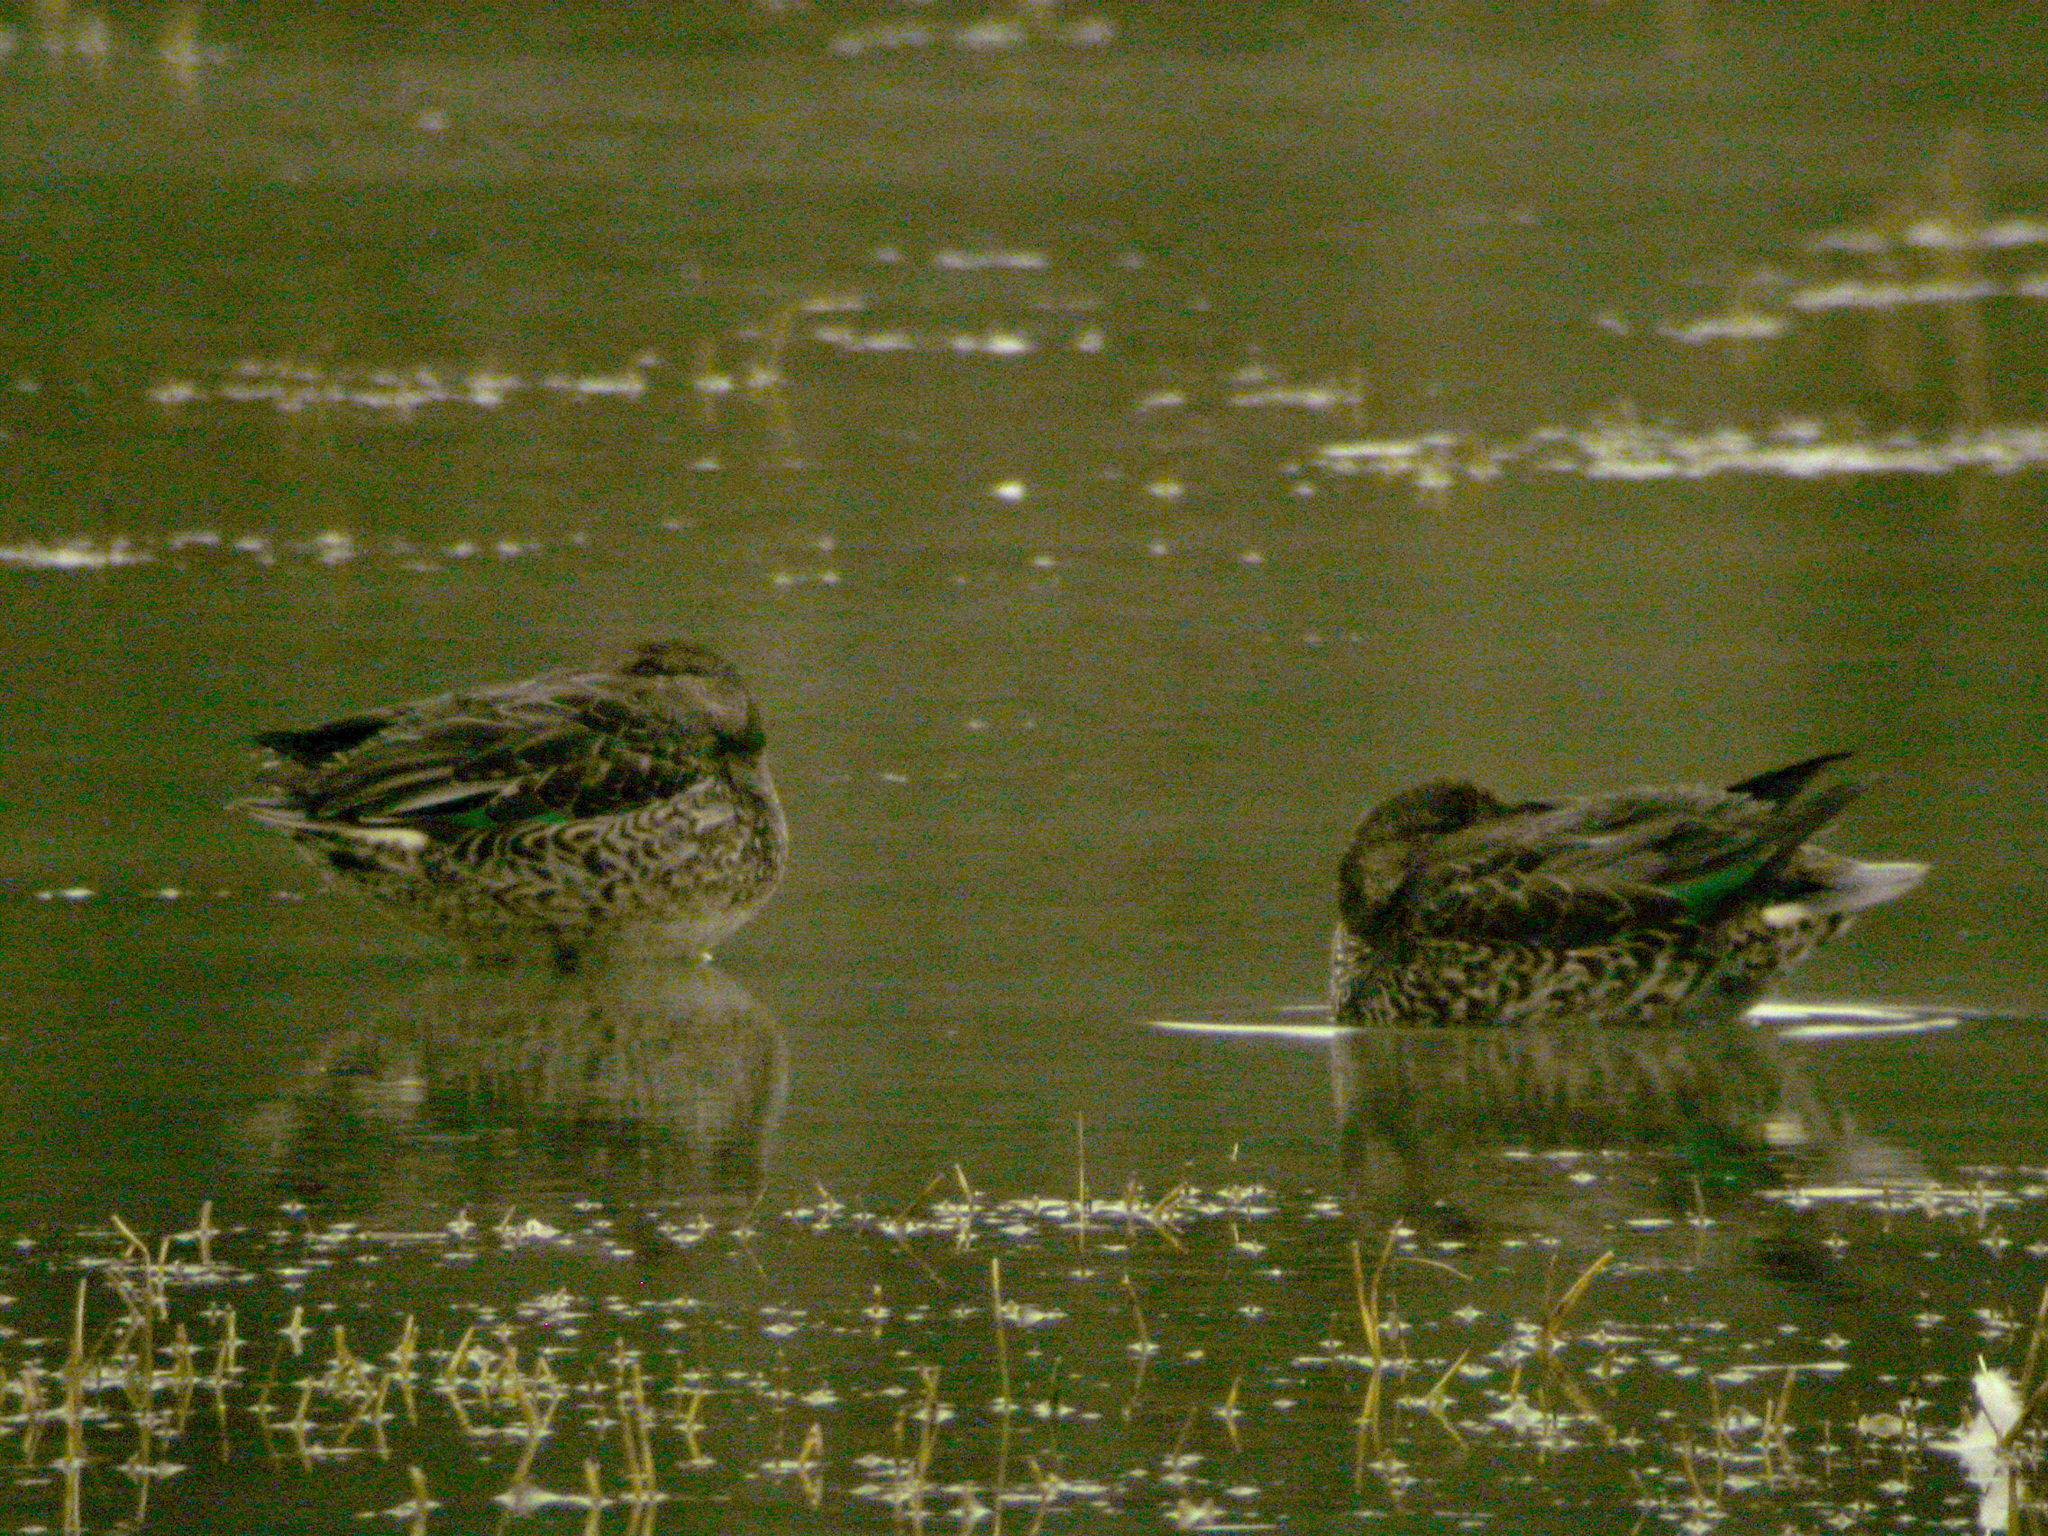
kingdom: Animalia
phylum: Chordata
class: Aves
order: Anseriformes
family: Anatidae
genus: Anas
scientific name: Anas crecca
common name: Eurasian teal
